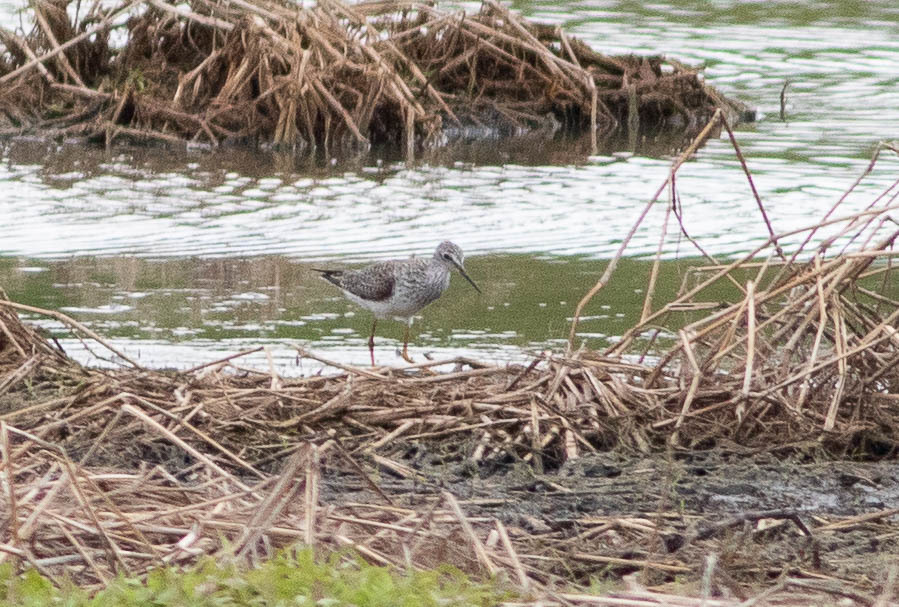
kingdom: Animalia
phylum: Chordata
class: Aves
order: Charadriiformes
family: Scolopacidae
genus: Tringa
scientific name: Tringa flavipes
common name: Lesser yellowlegs
